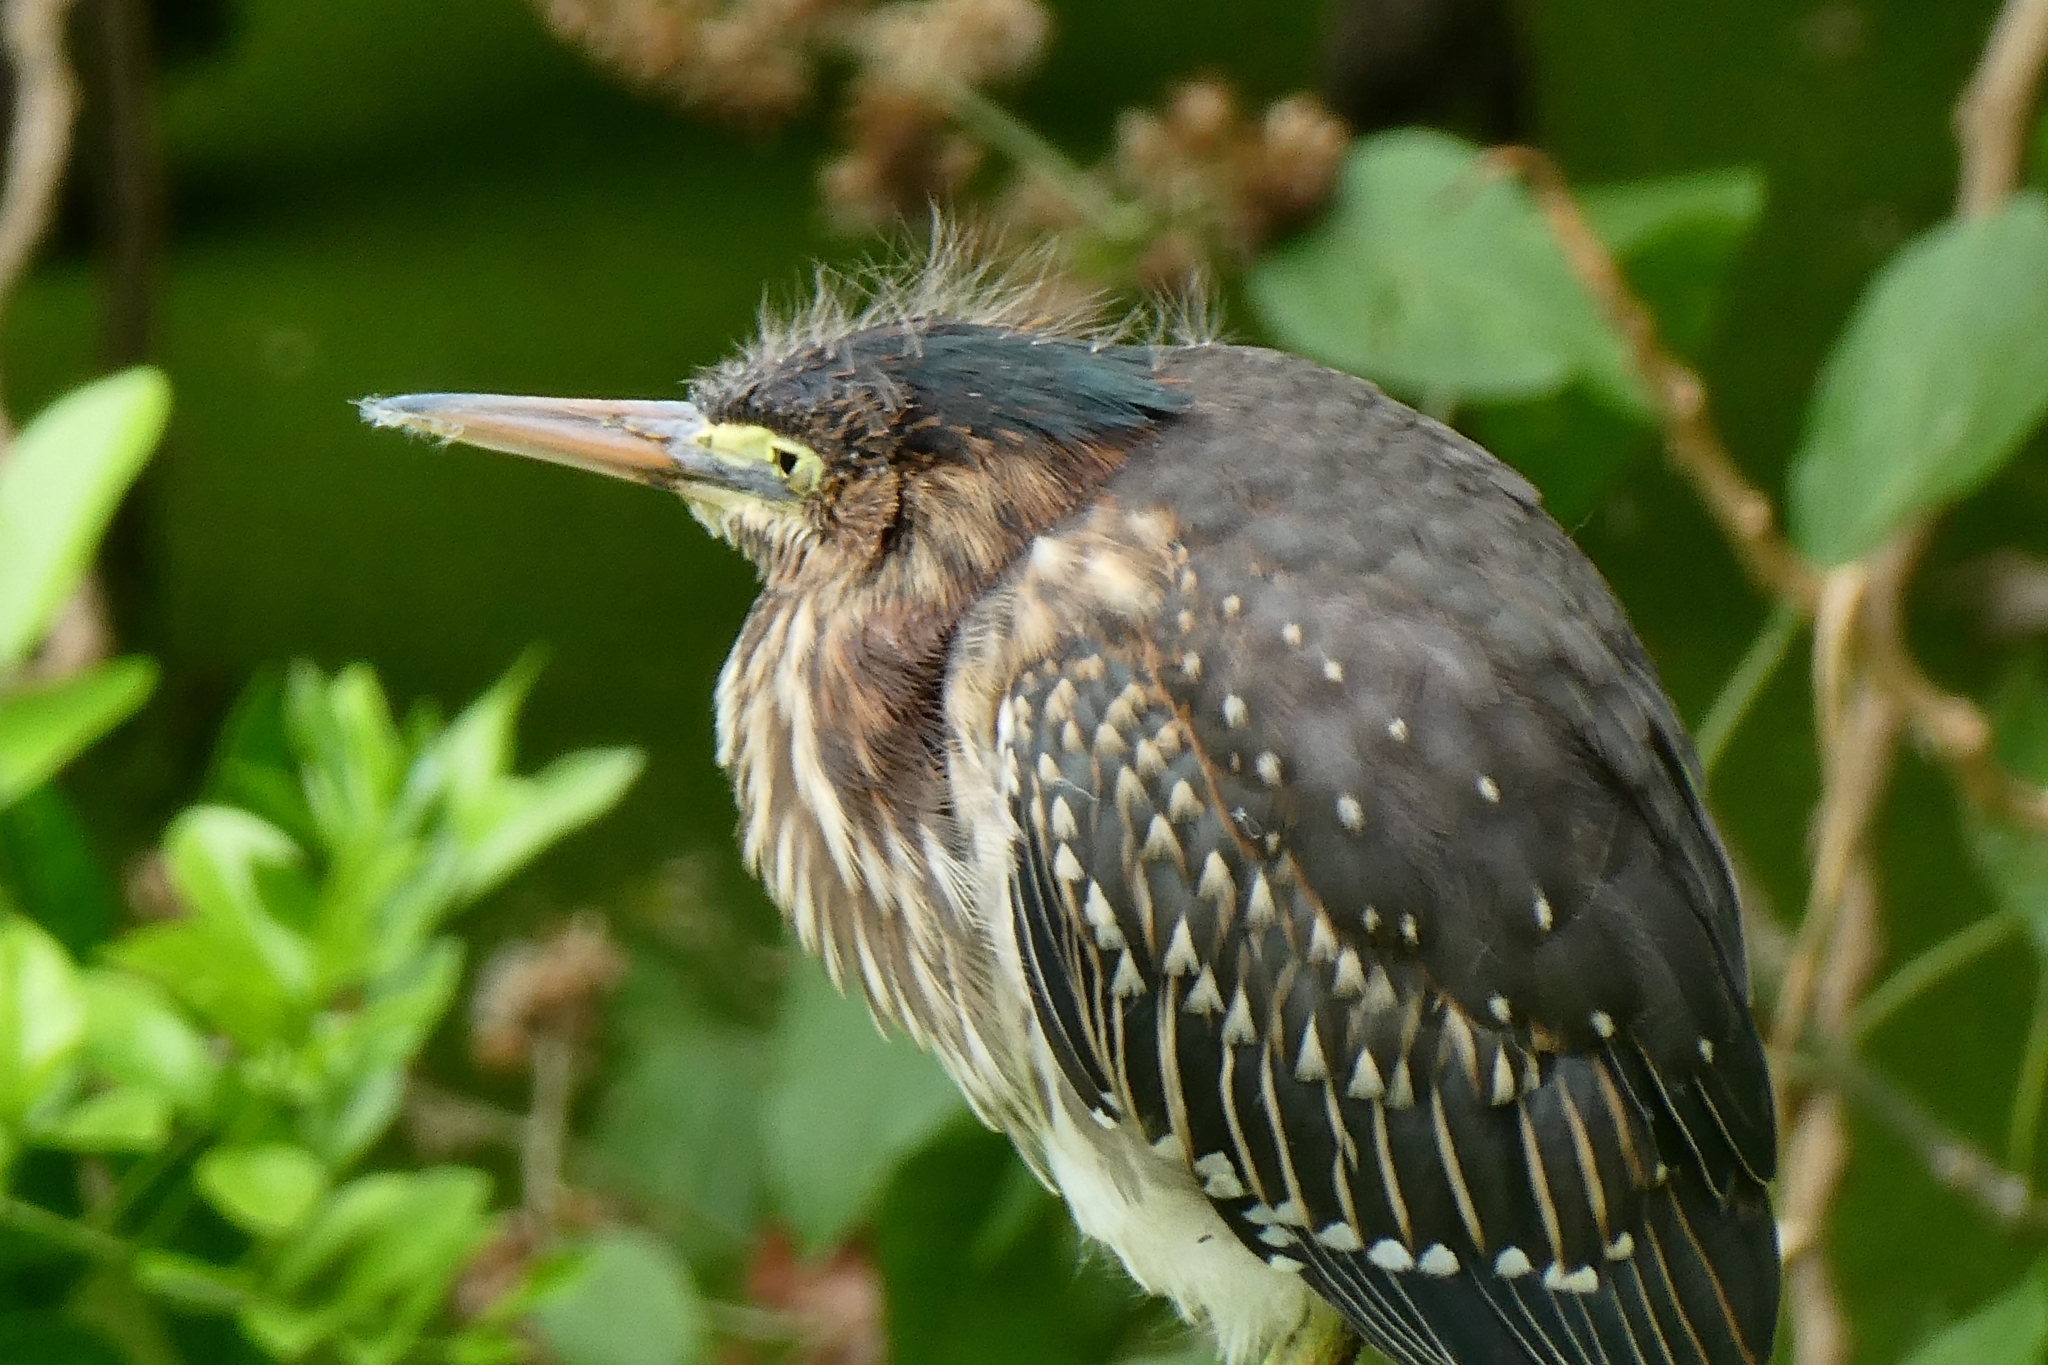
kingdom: Animalia
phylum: Chordata
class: Aves
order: Pelecaniformes
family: Ardeidae
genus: Butorides
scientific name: Butorides virescens
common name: Green heron
